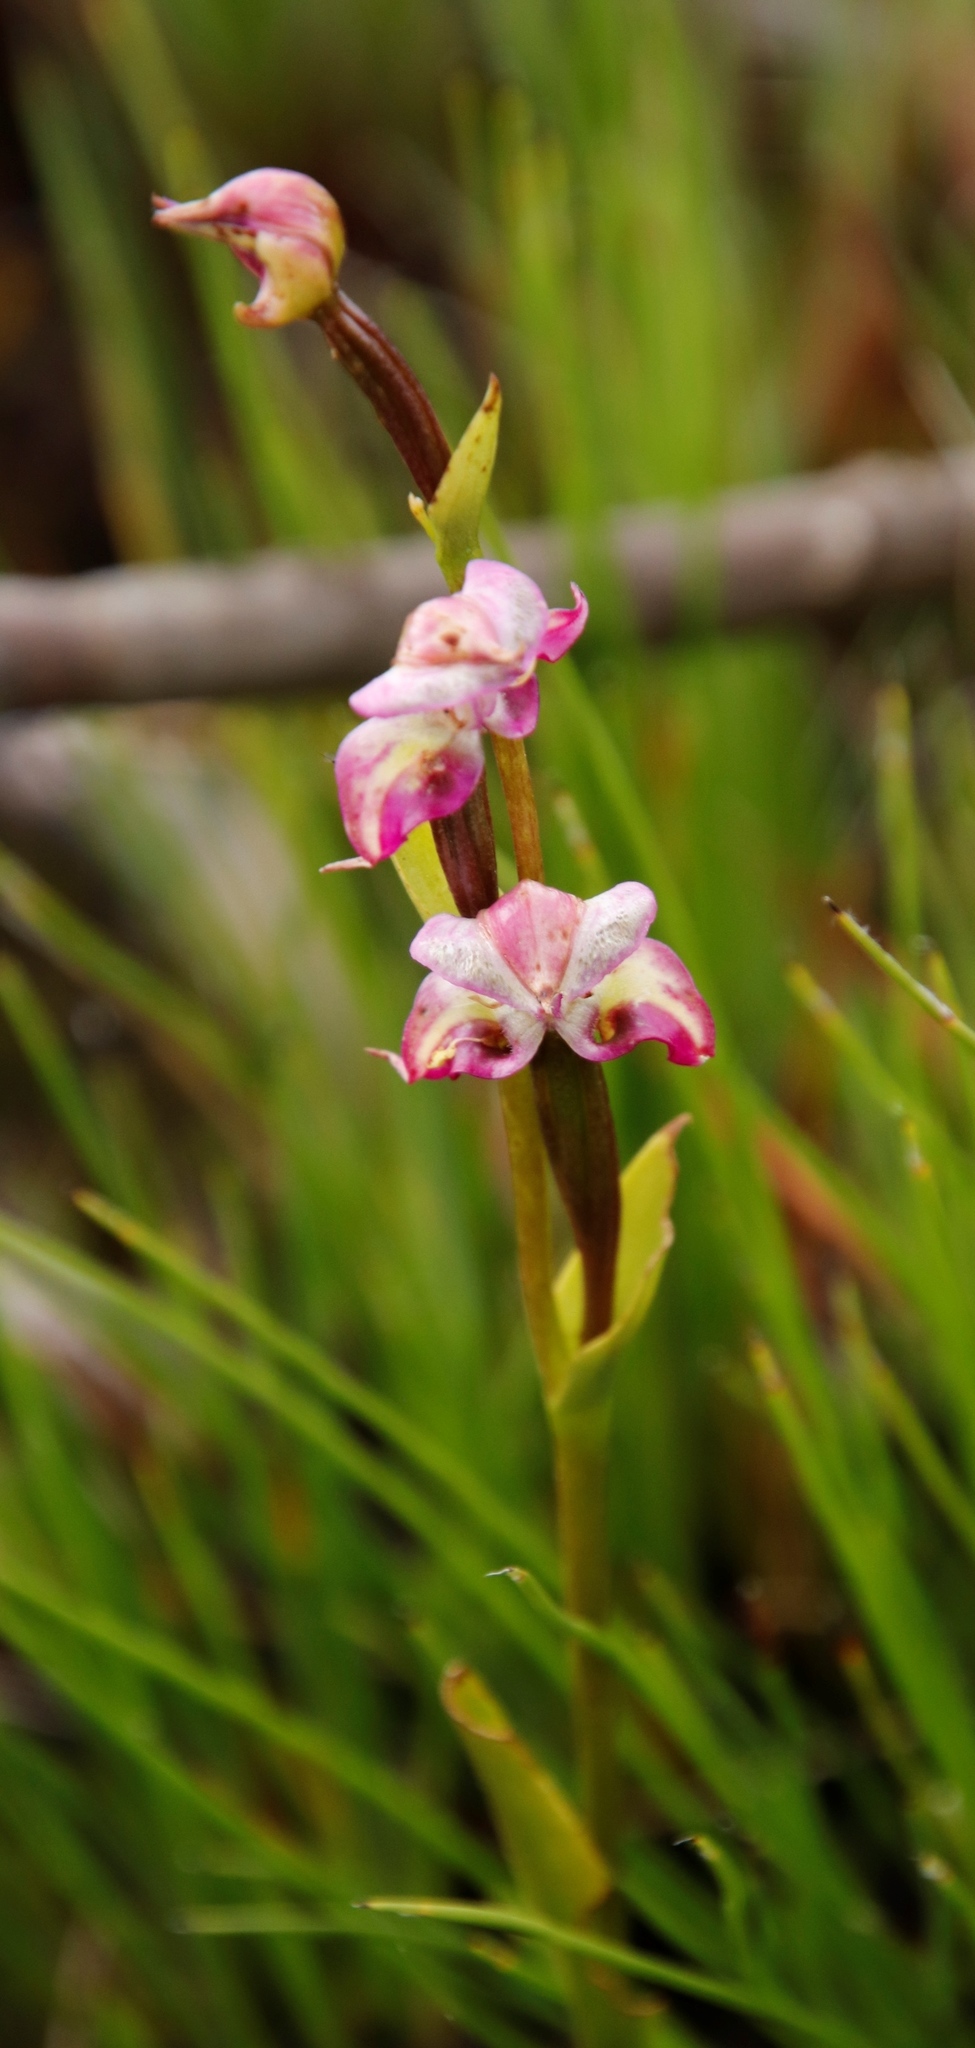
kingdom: Plantae
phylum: Tracheophyta
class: Liliopsida
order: Asparagales
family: Orchidaceae
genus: Disperis
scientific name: Disperis paludosa
